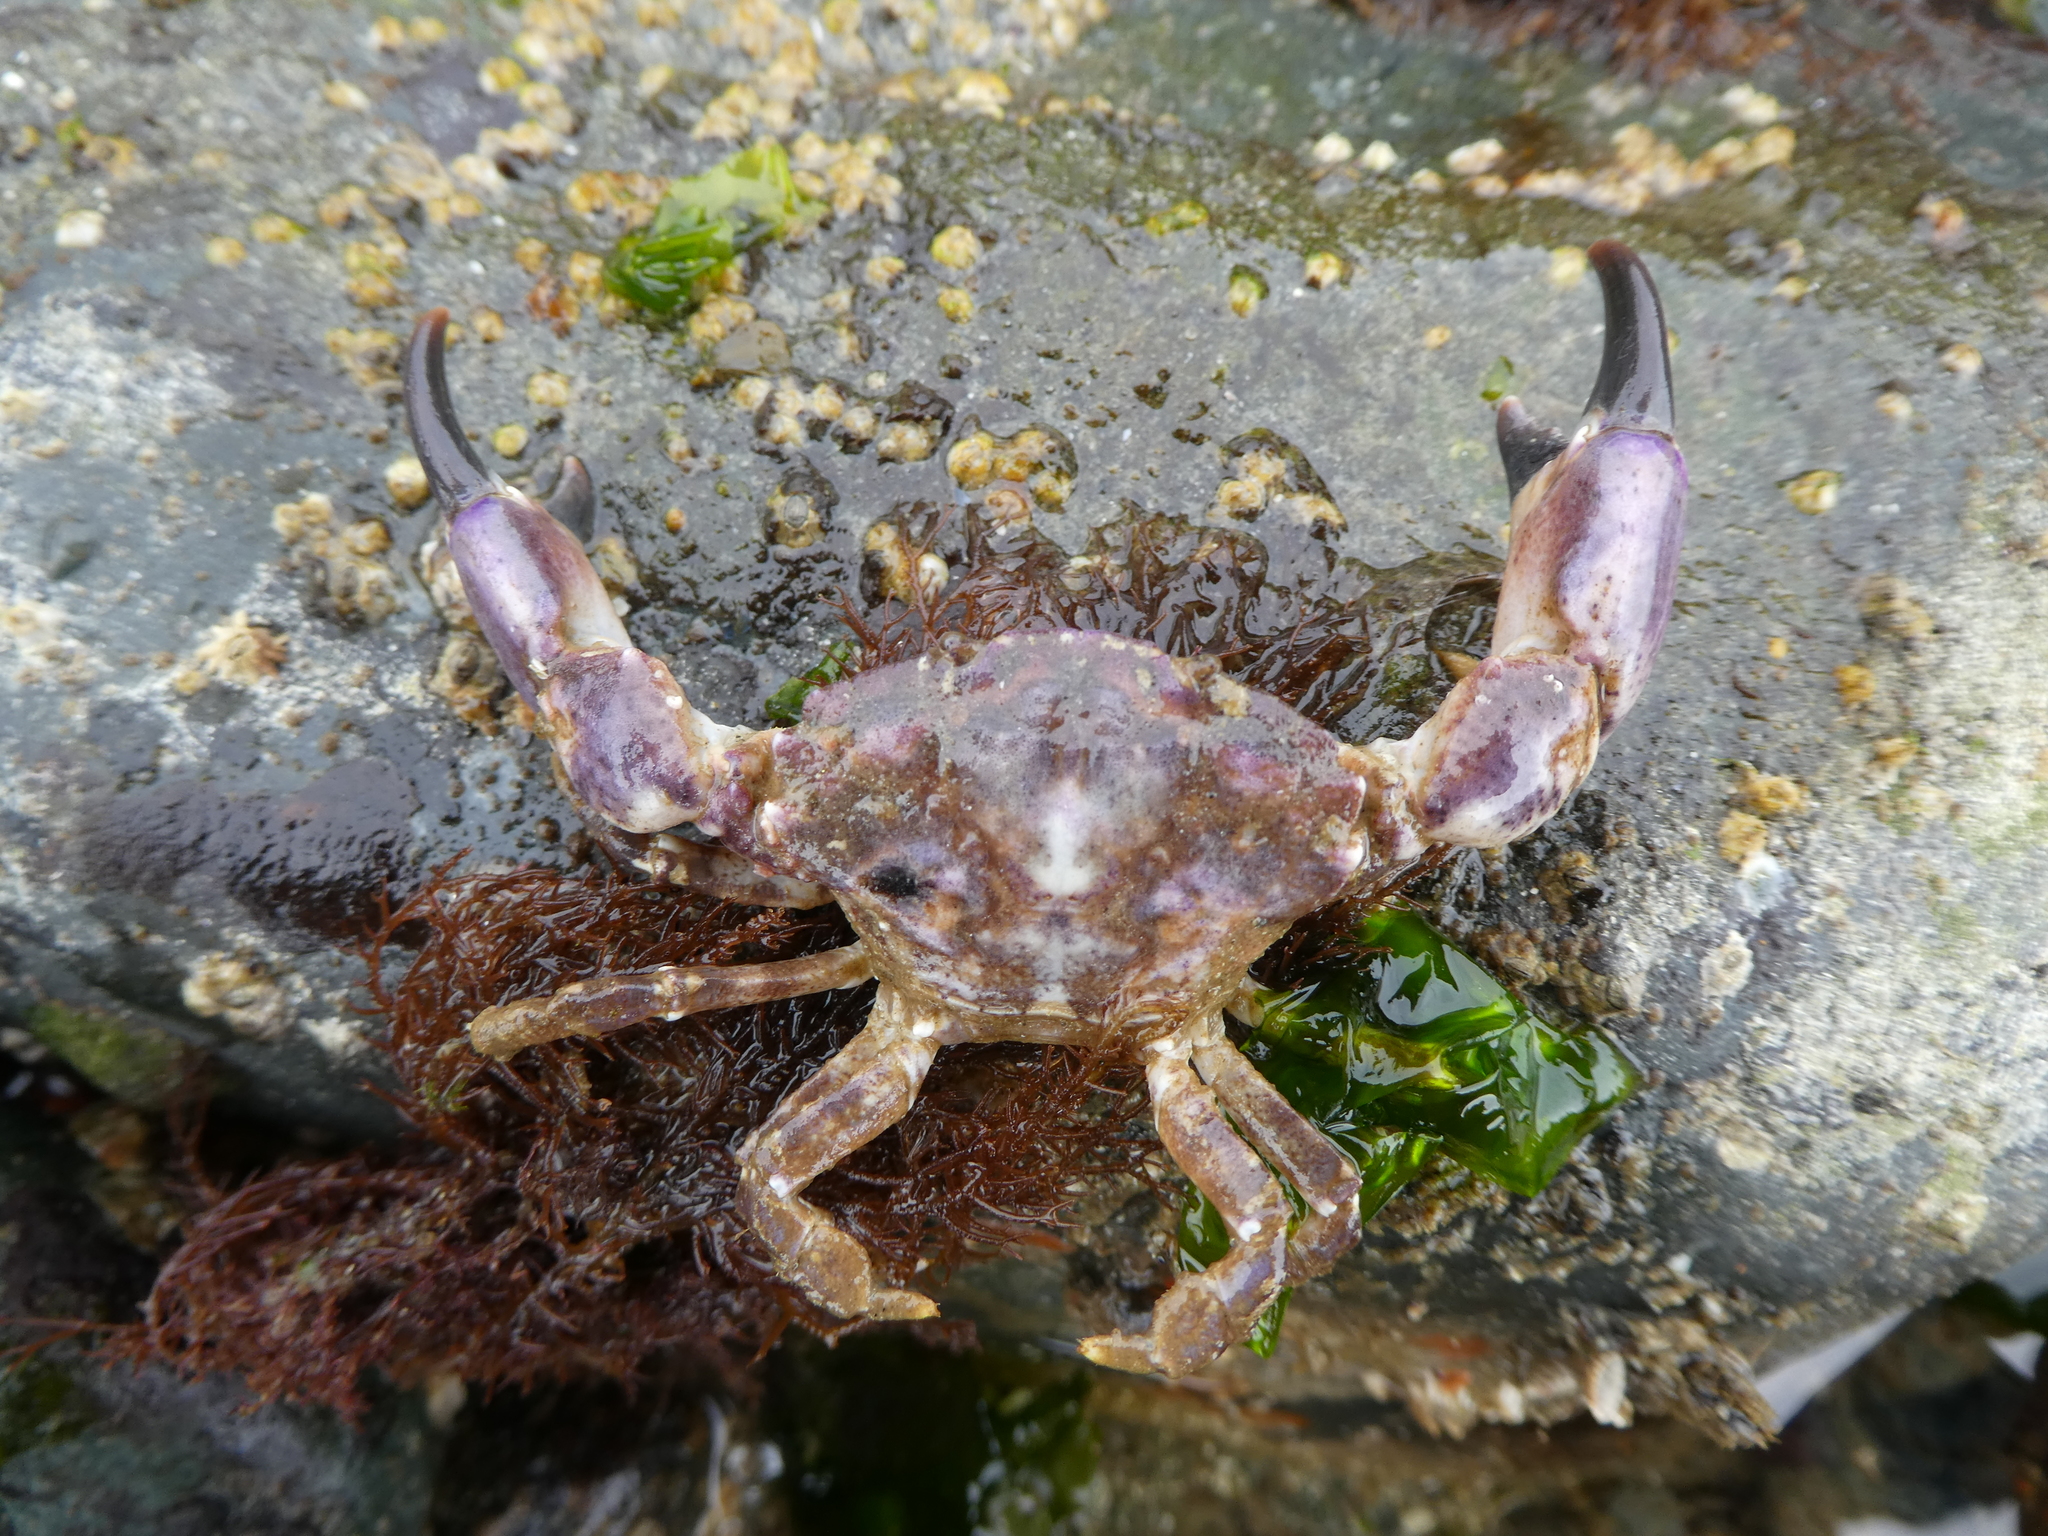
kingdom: Animalia
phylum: Arthropoda
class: Malacostraca
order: Decapoda
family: Panopeidae
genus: Lophopanopeus
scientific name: Lophopanopeus bellus
